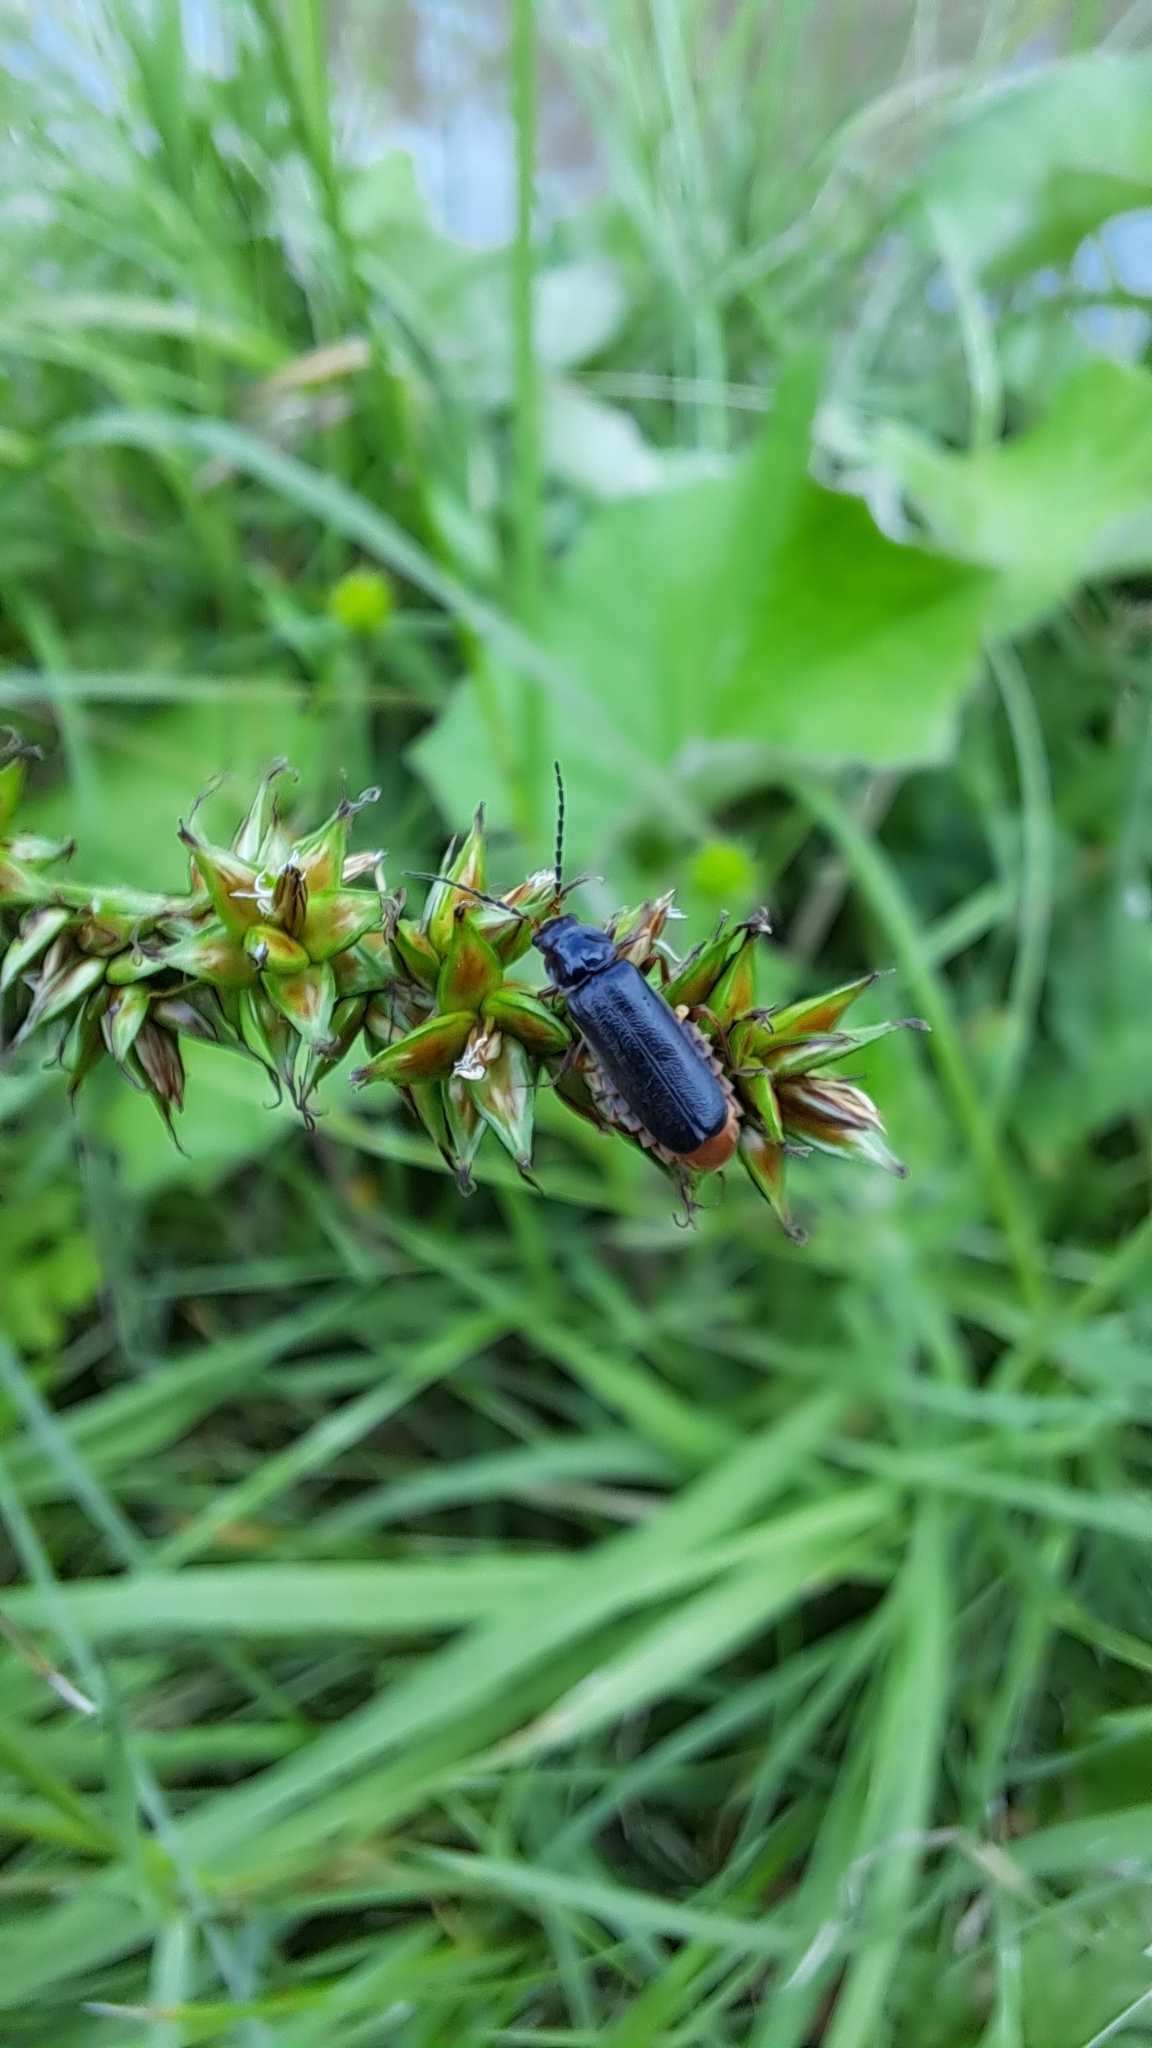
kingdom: Animalia
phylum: Arthropoda
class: Insecta
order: Coleoptera
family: Cantharidae
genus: Cantharis
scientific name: Cantharis flavilabris
